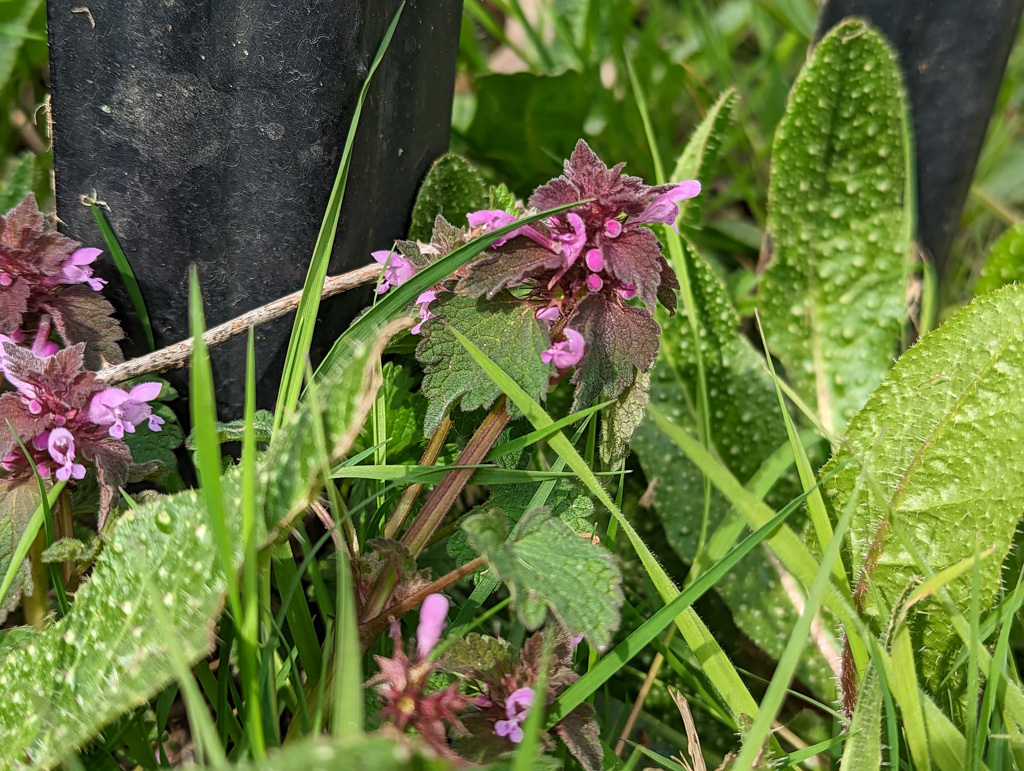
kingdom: Plantae
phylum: Tracheophyta
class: Magnoliopsida
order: Lamiales
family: Lamiaceae
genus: Lamium
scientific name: Lamium purpureum
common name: Red dead-nettle
